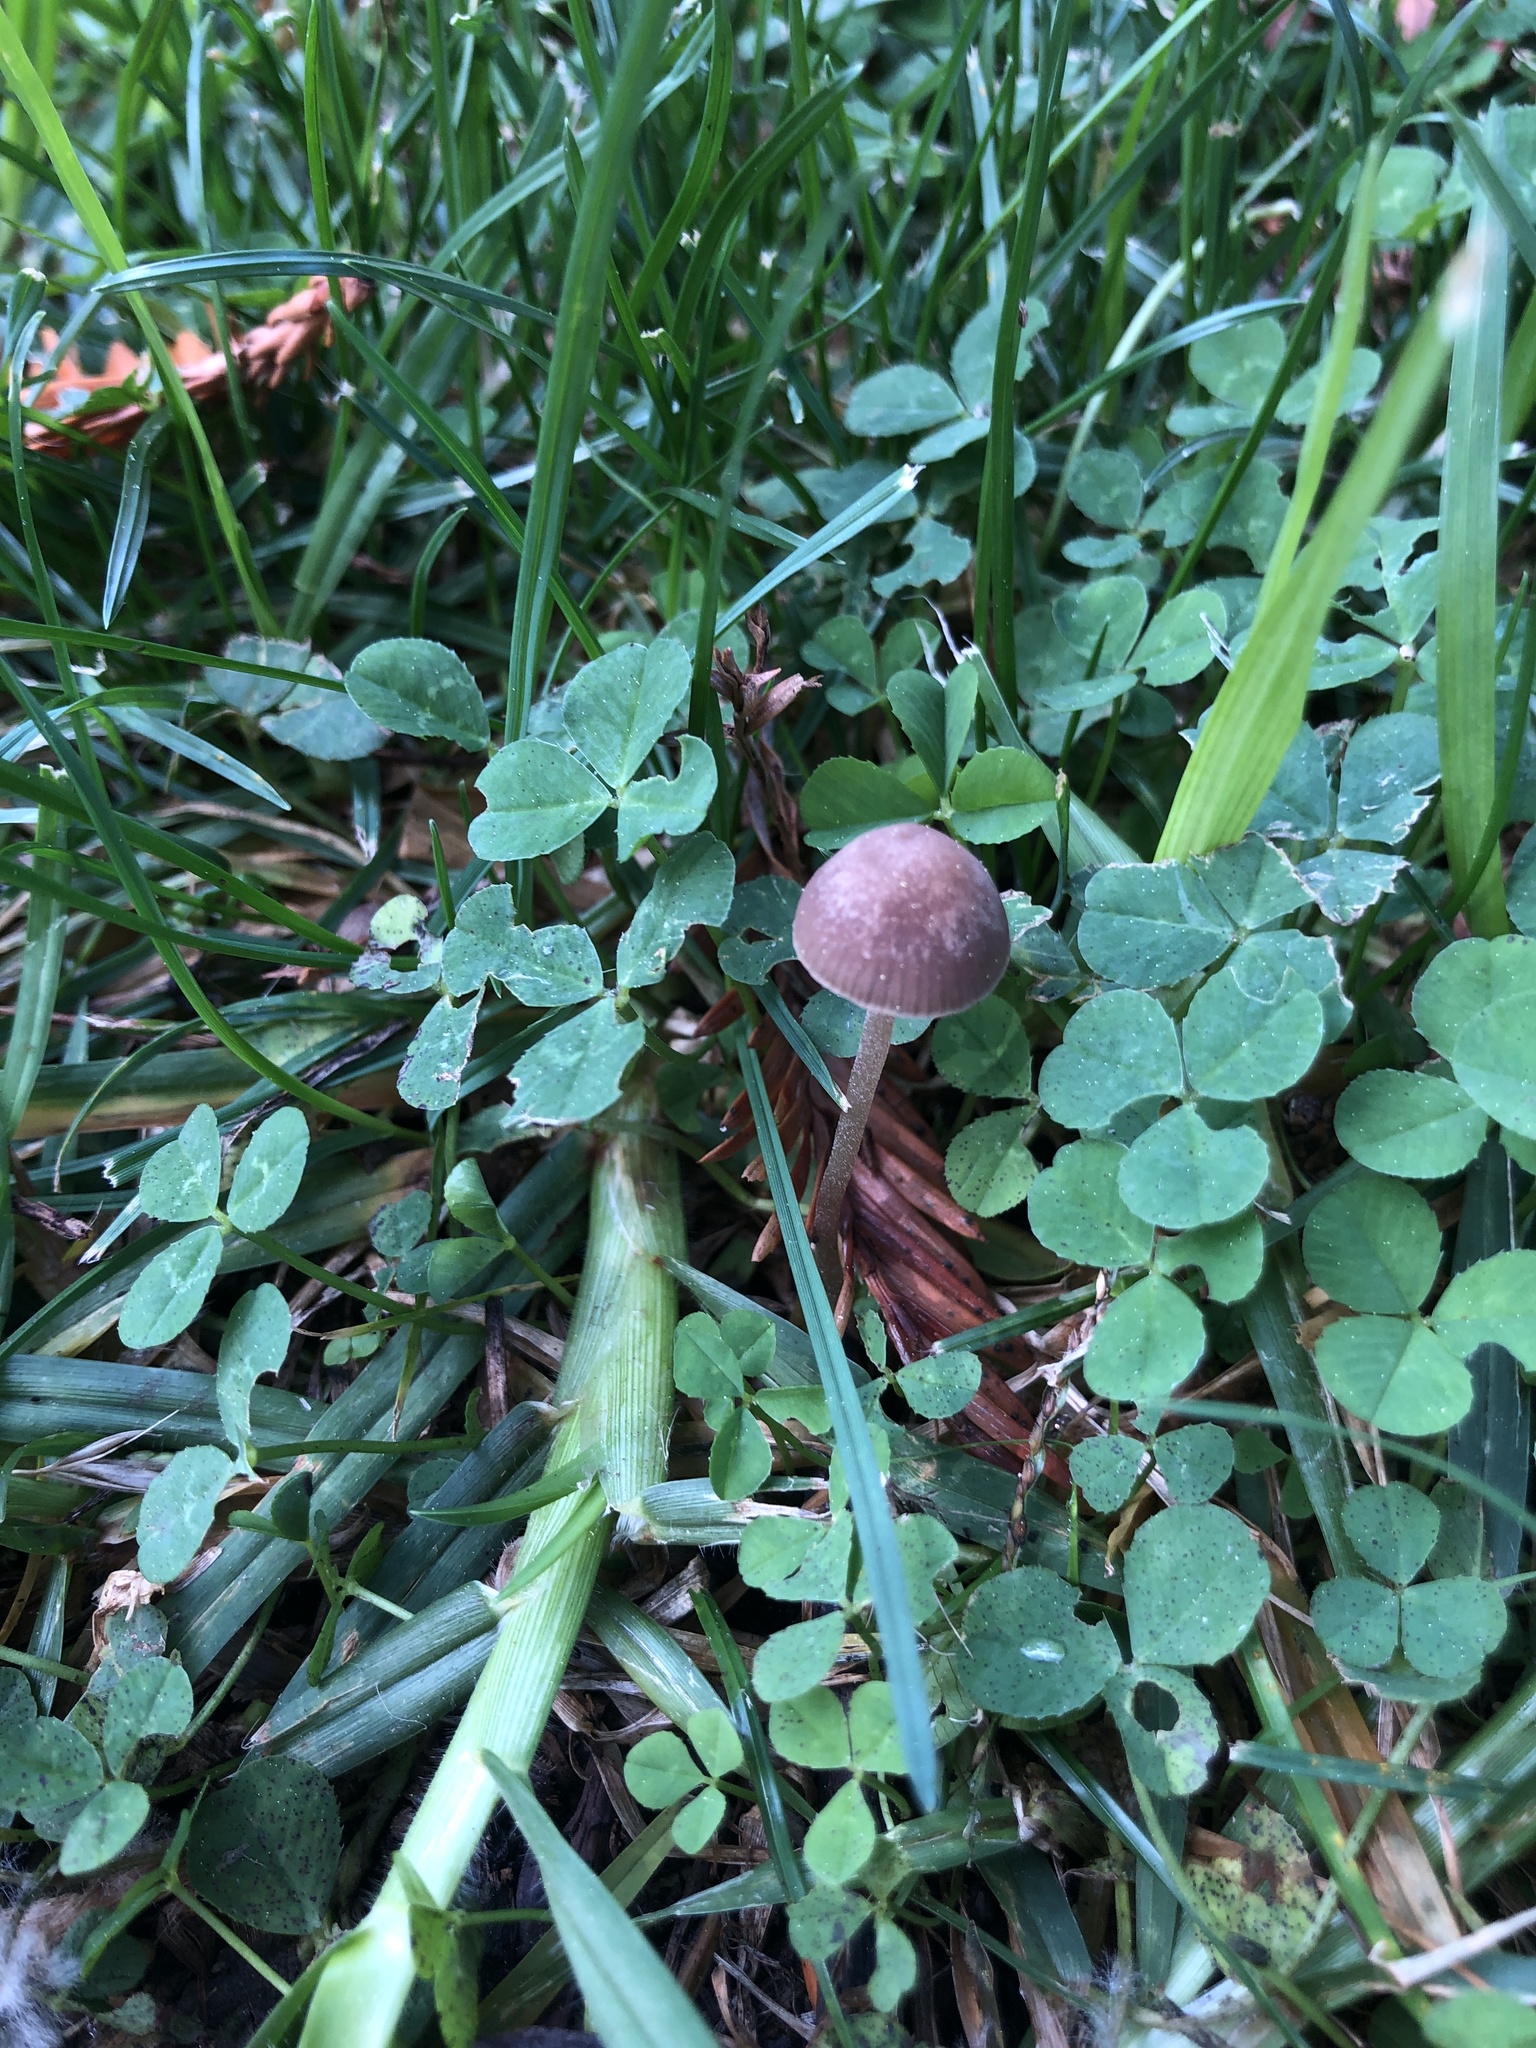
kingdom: Fungi
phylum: Basidiomycota
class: Agaricomycetes
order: Agaricales
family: Bolbitiaceae
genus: Panaeolina
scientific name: Panaeolina foenisecii
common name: Brown hay cap
